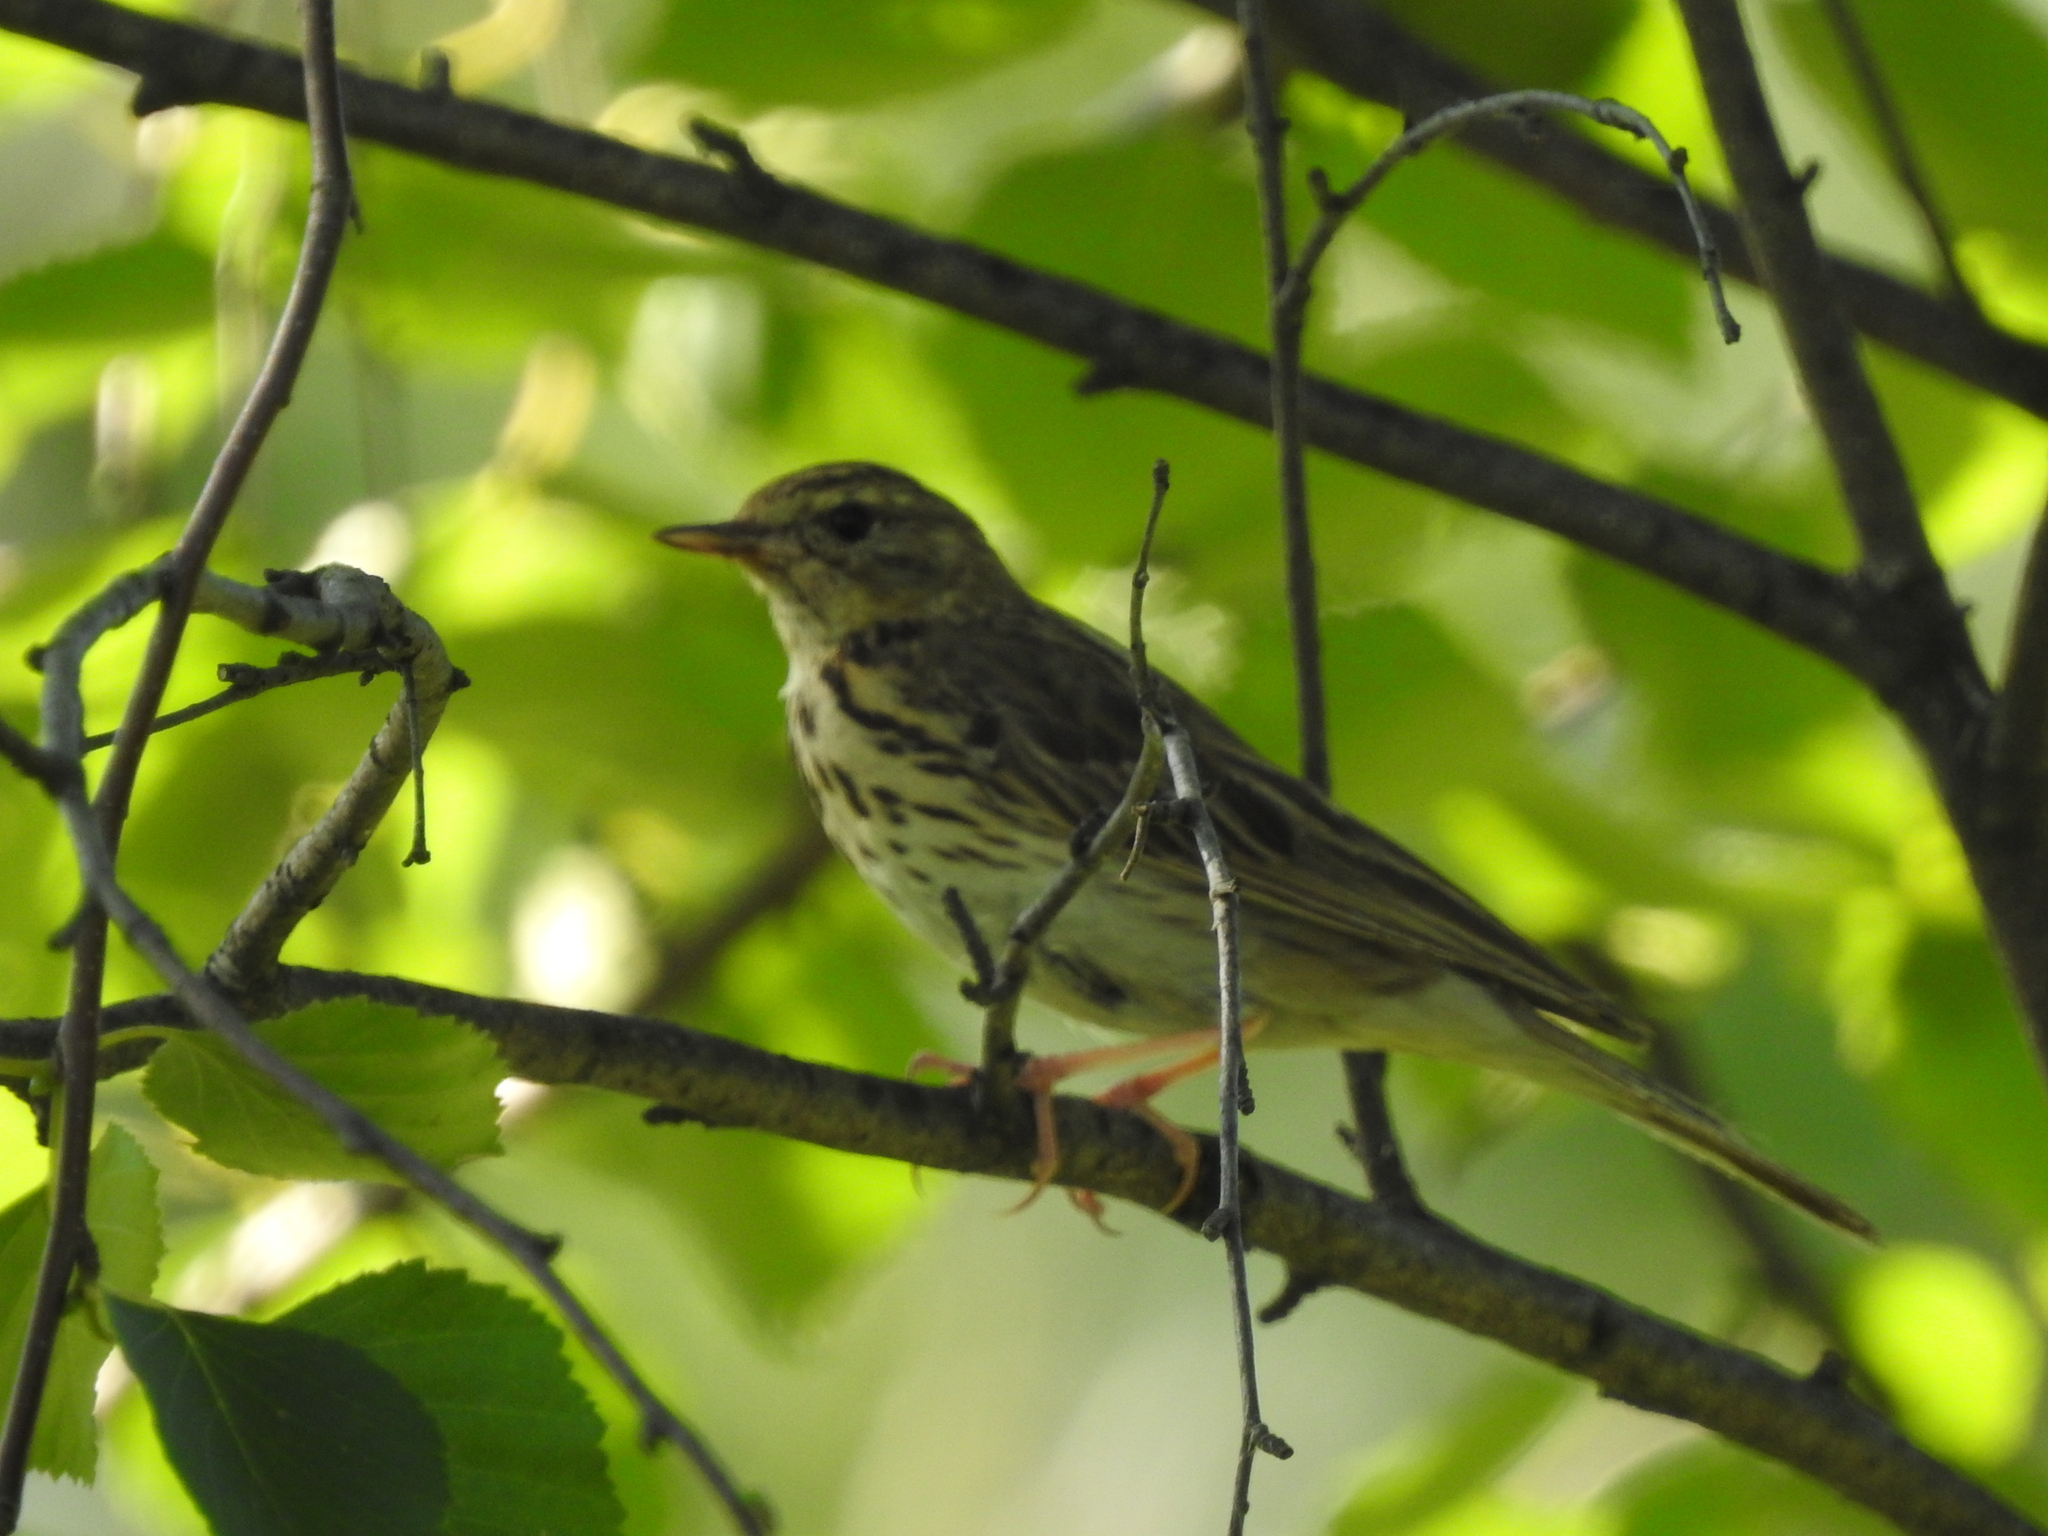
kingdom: Animalia
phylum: Chordata
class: Aves
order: Passeriformes
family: Motacillidae
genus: Anthus
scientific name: Anthus trivialis
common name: Tree pipit
